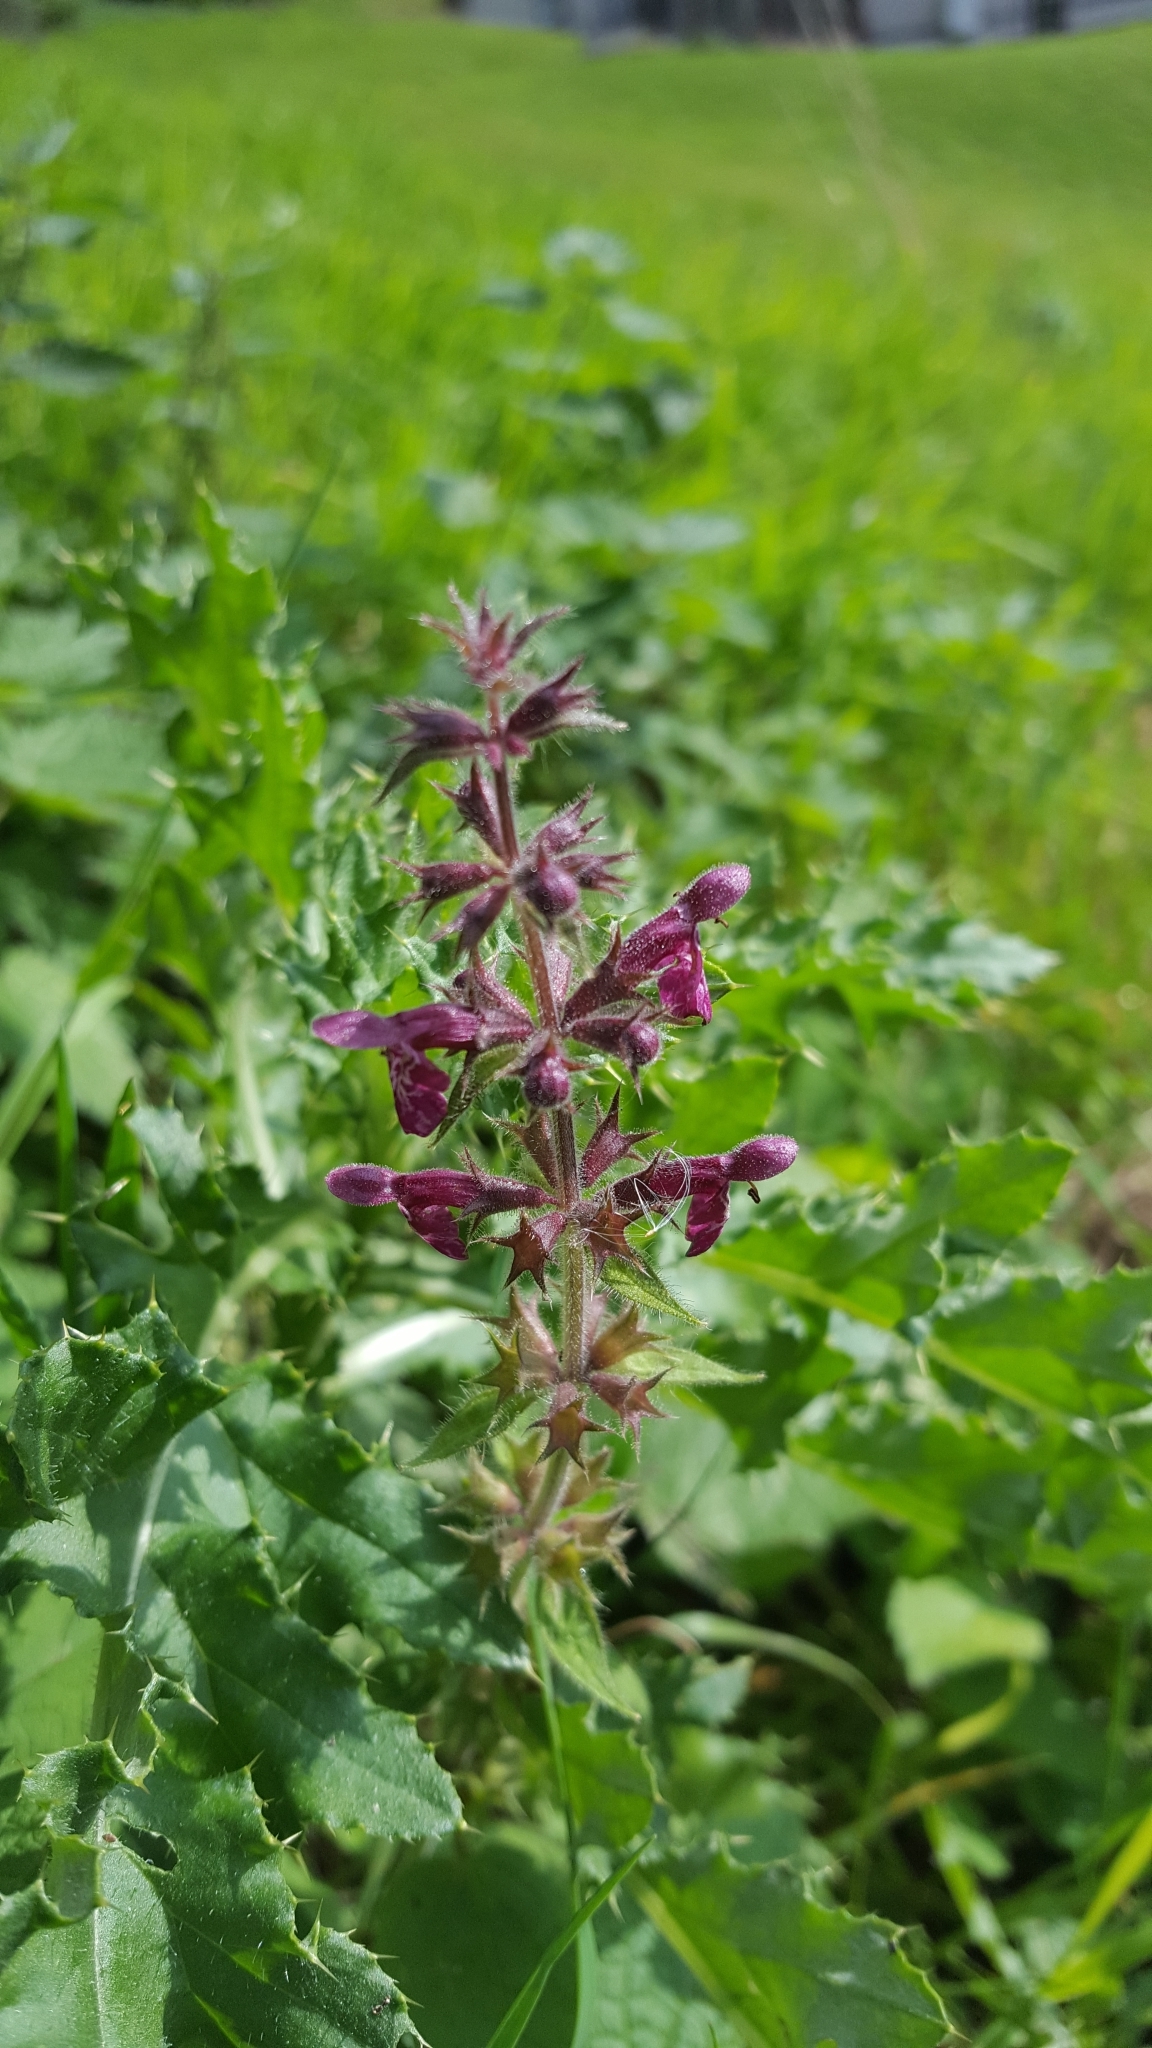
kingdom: Plantae
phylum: Tracheophyta
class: Magnoliopsida
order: Lamiales
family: Lamiaceae
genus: Stachys
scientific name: Stachys sylvatica
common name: Hedge woundwort
